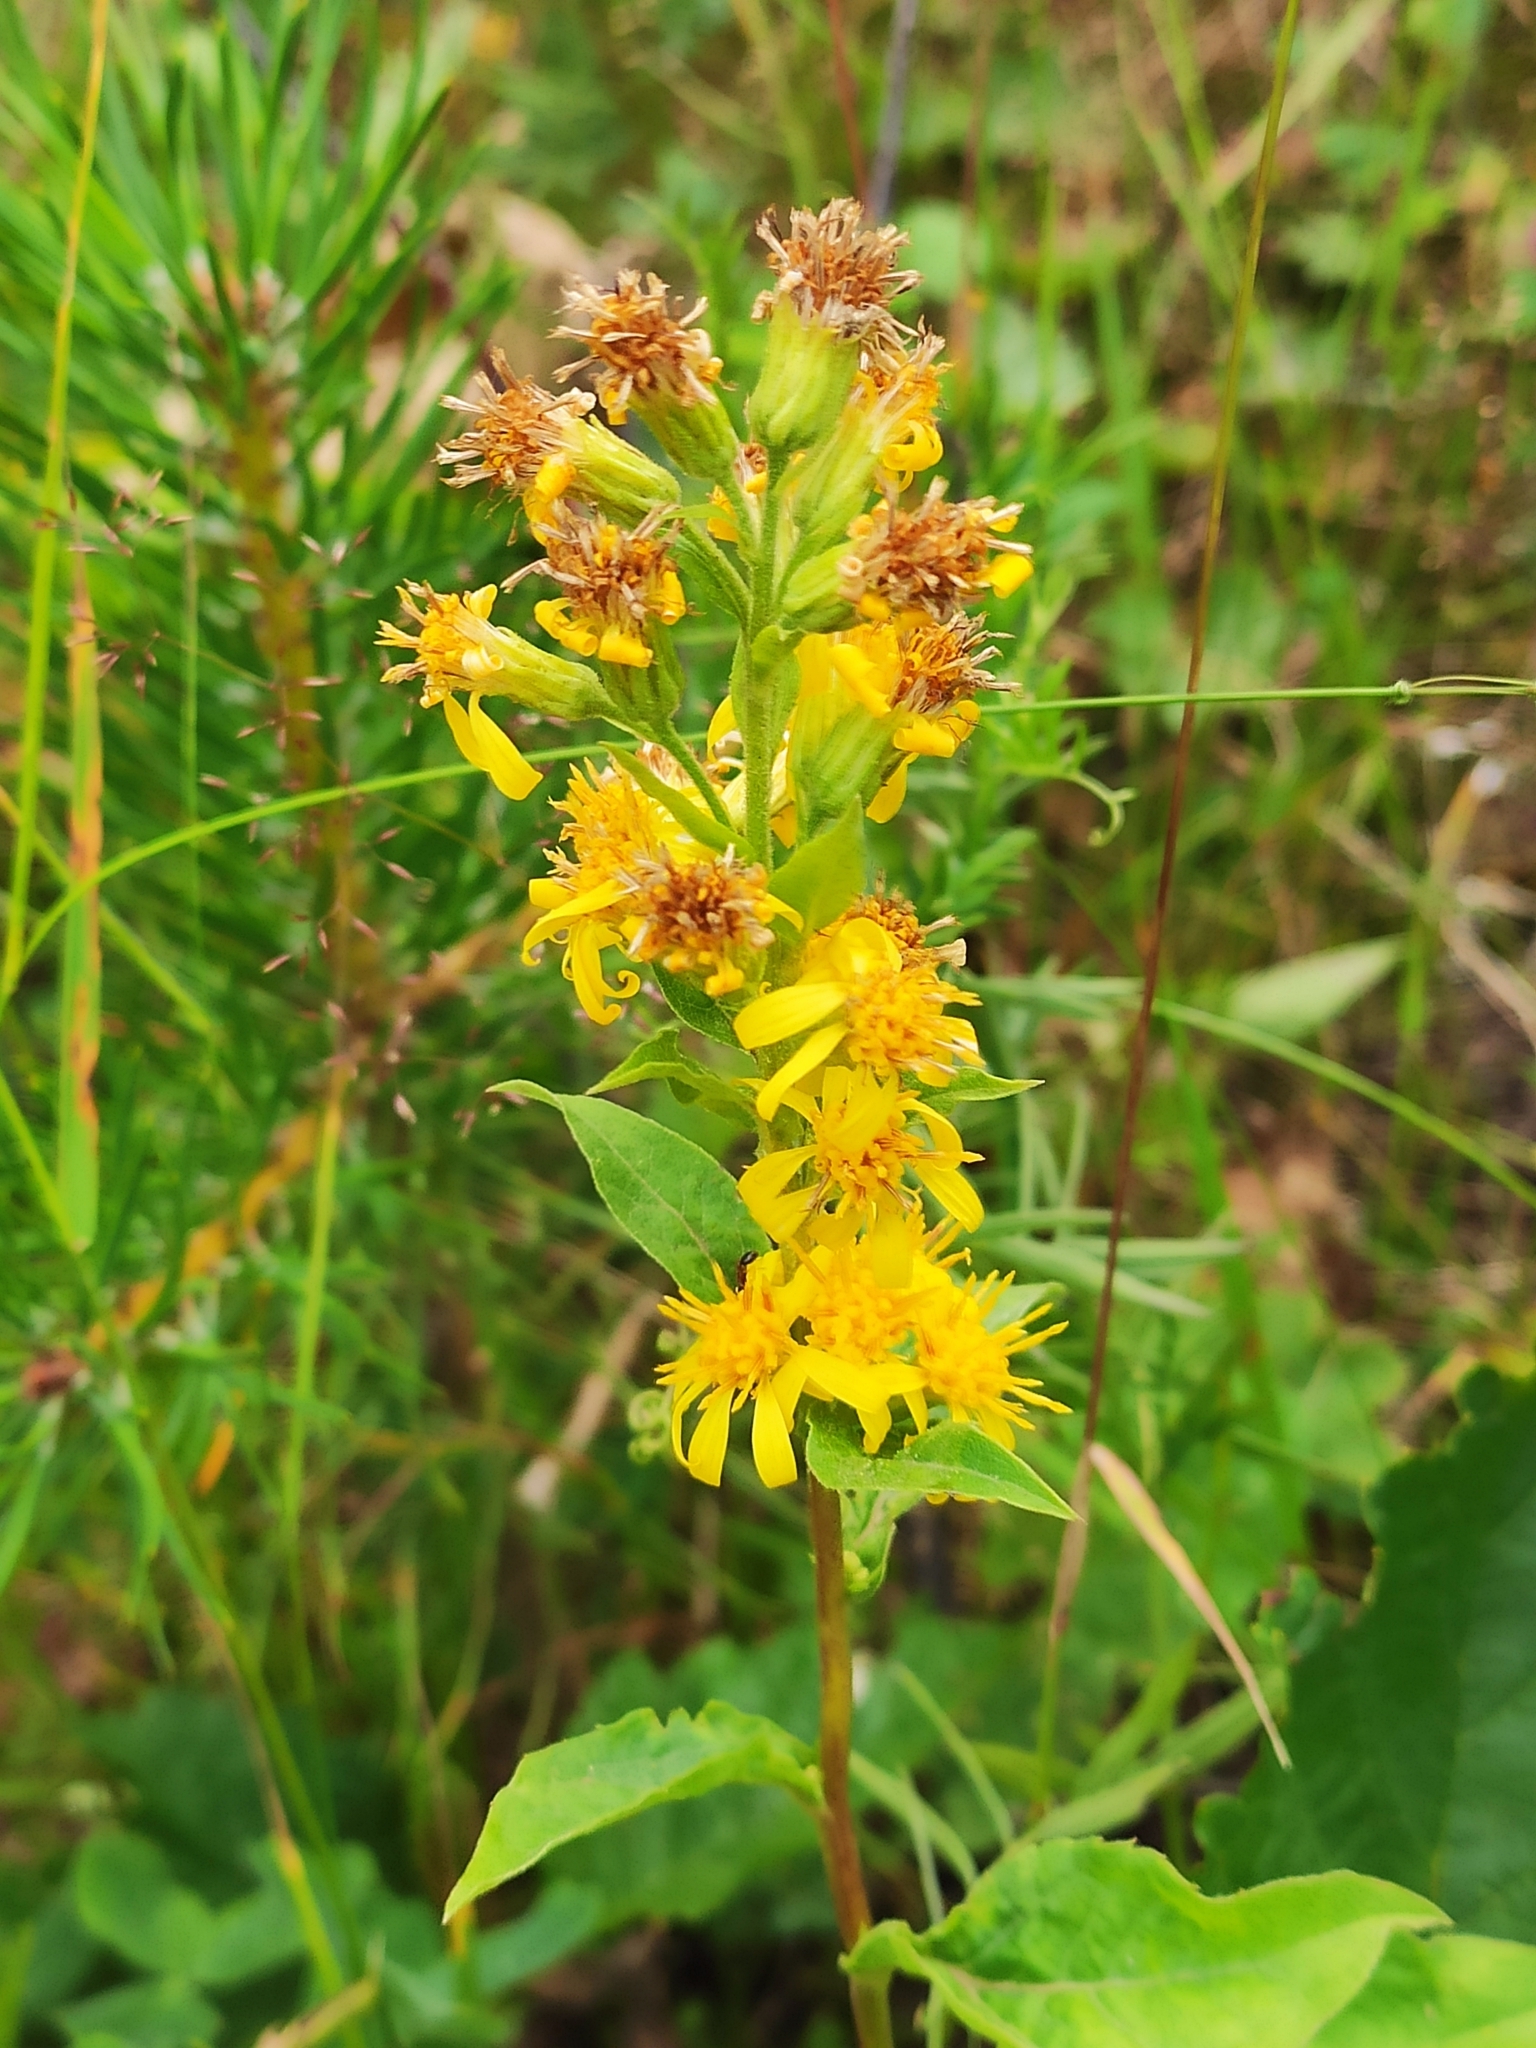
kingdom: Plantae
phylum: Tracheophyta
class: Magnoliopsida
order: Asterales
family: Asteraceae
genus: Solidago
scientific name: Solidago virgaurea
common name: Goldenrod
